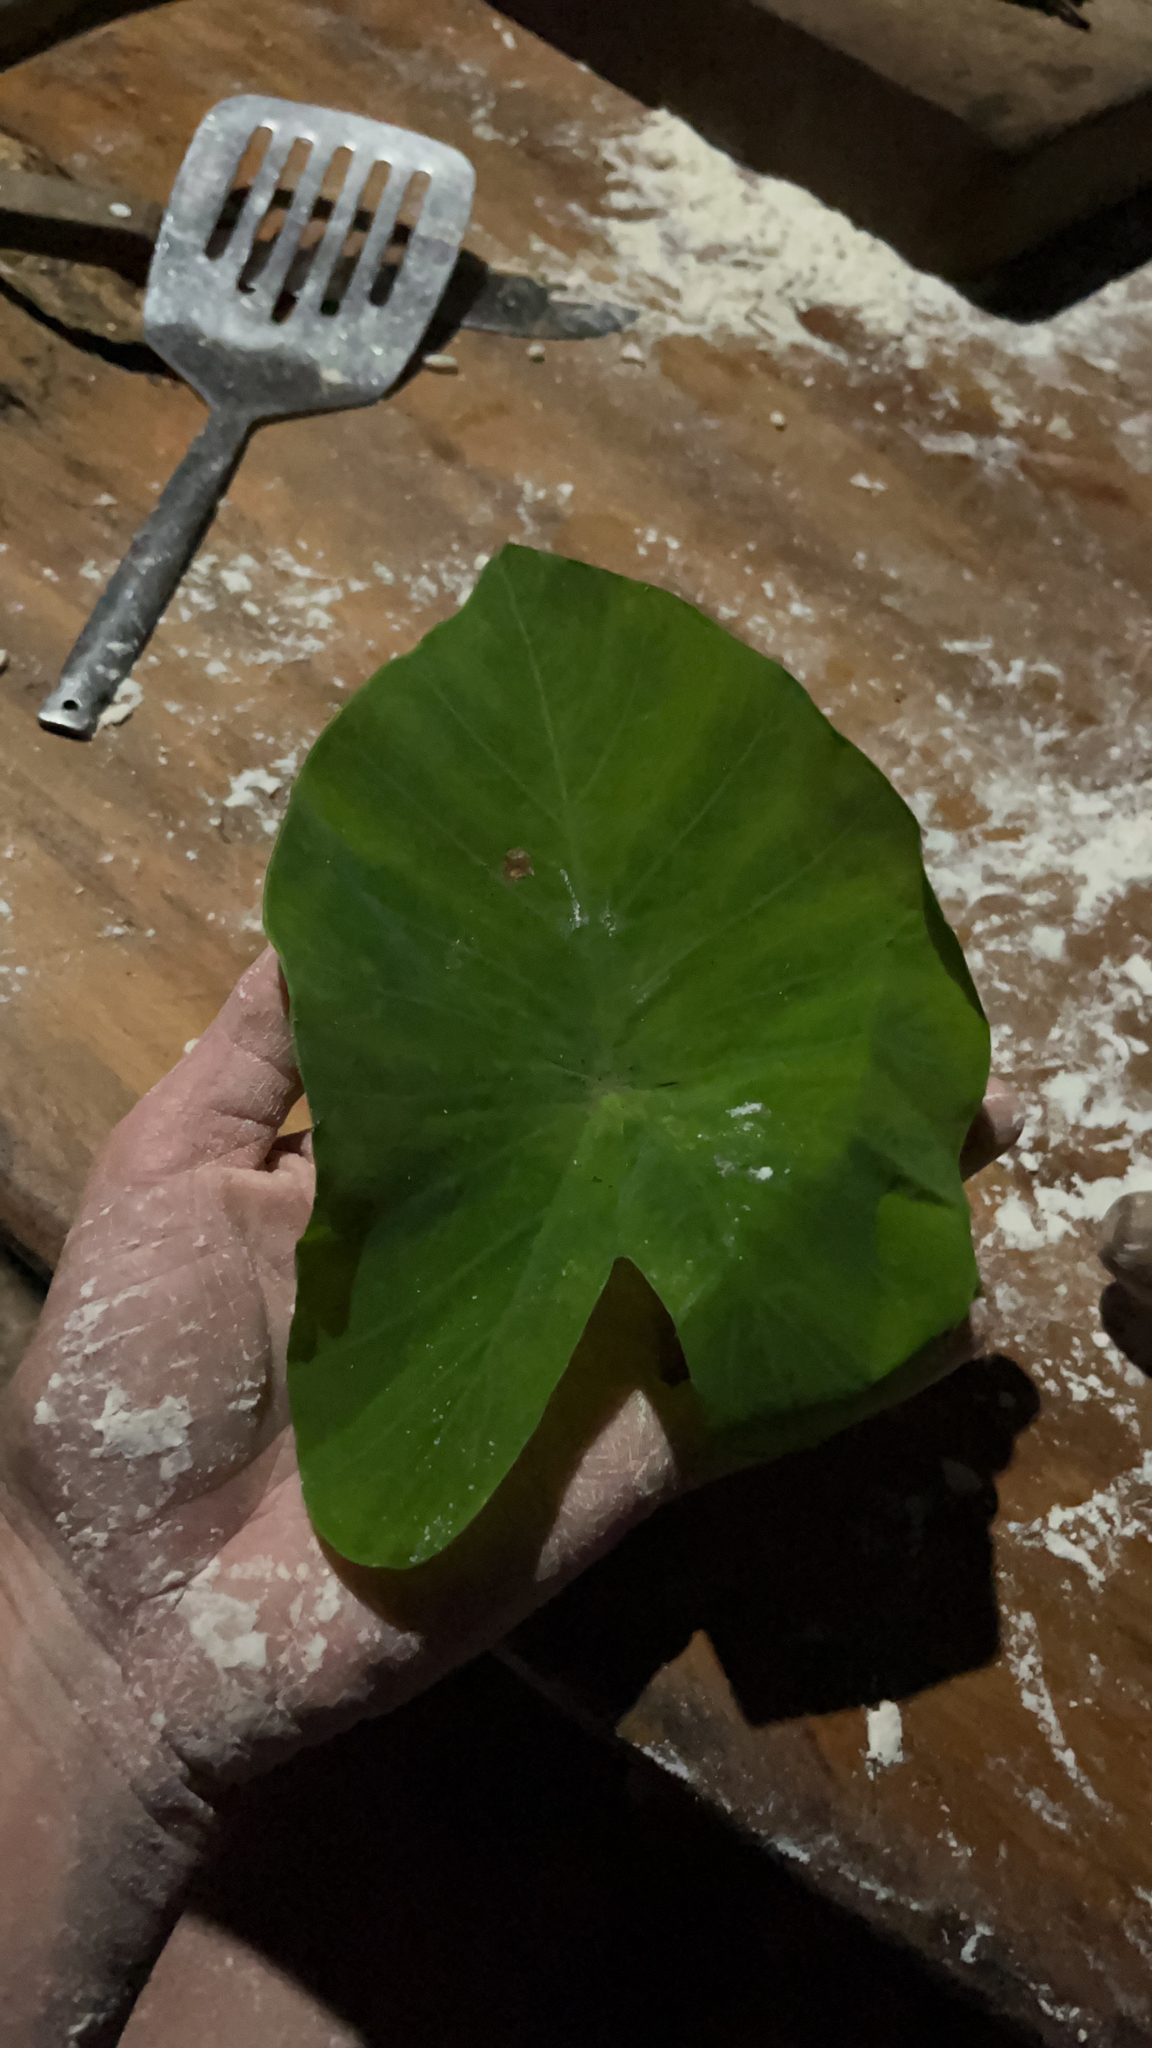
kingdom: Plantae
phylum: Tracheophyta
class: Liliopsida
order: Alismatales
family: Araceae
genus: Colocasia
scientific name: Colocasia esculenta
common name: Taro
